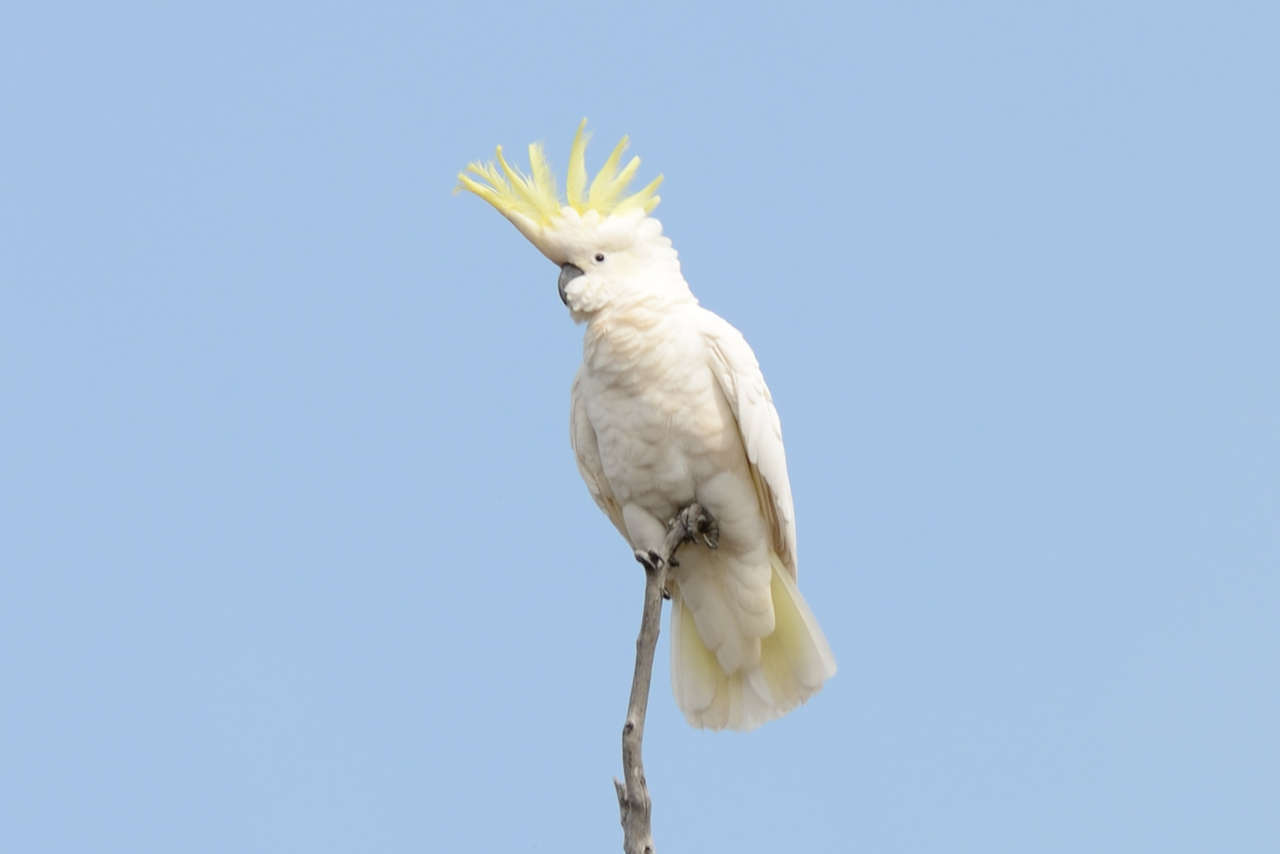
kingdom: Animalia
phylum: Chordata
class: Aves
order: Psittaciformes
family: Psittacidae
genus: Cacatua
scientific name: Cacatua galerita
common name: Sulphur-crested cockatoo
